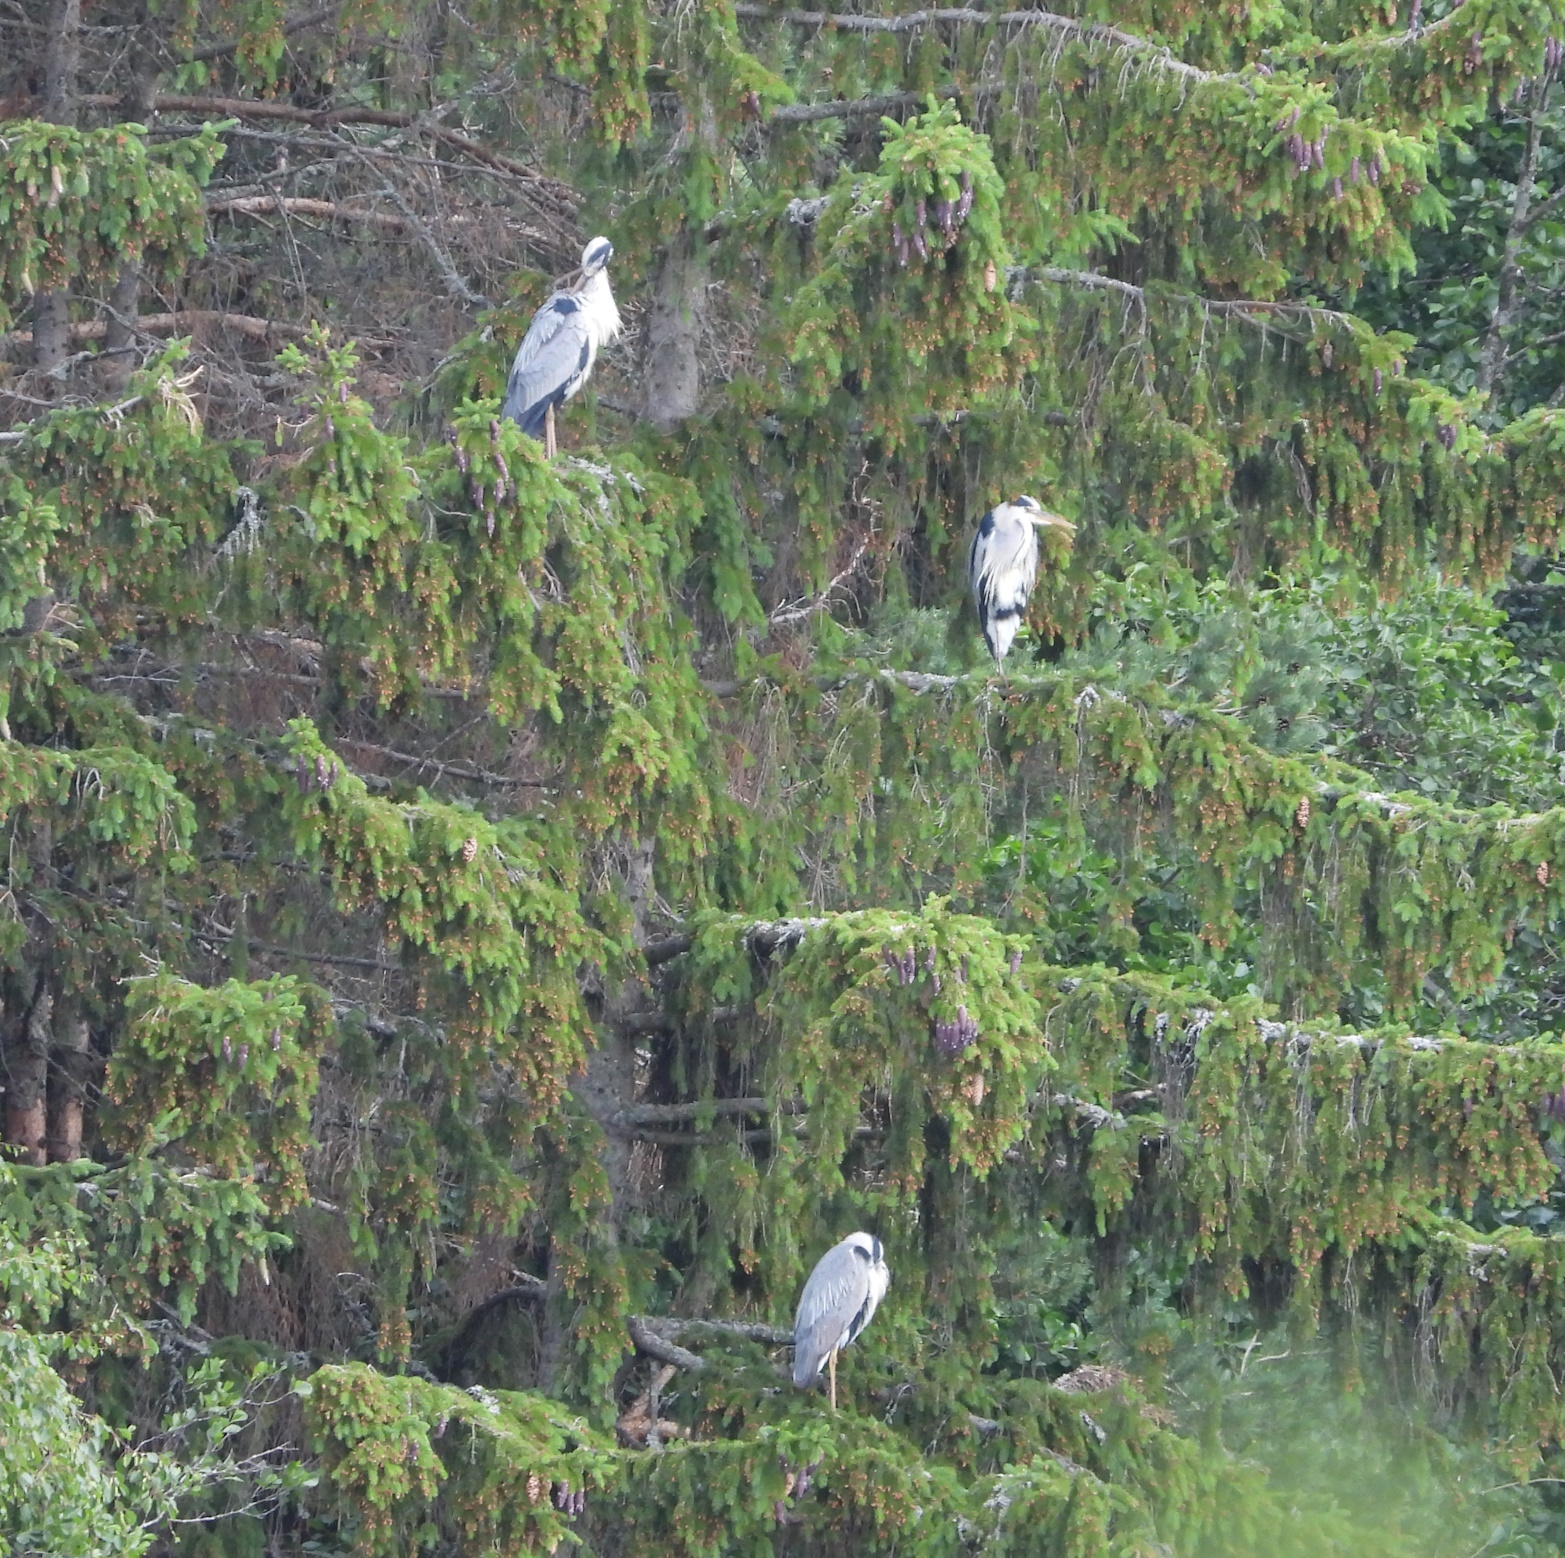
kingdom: Animalia
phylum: Chordata
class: Aves
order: Pelecaniformes
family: Ardeidae
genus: Ardea
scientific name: Ardea cinerea
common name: Grey heron
